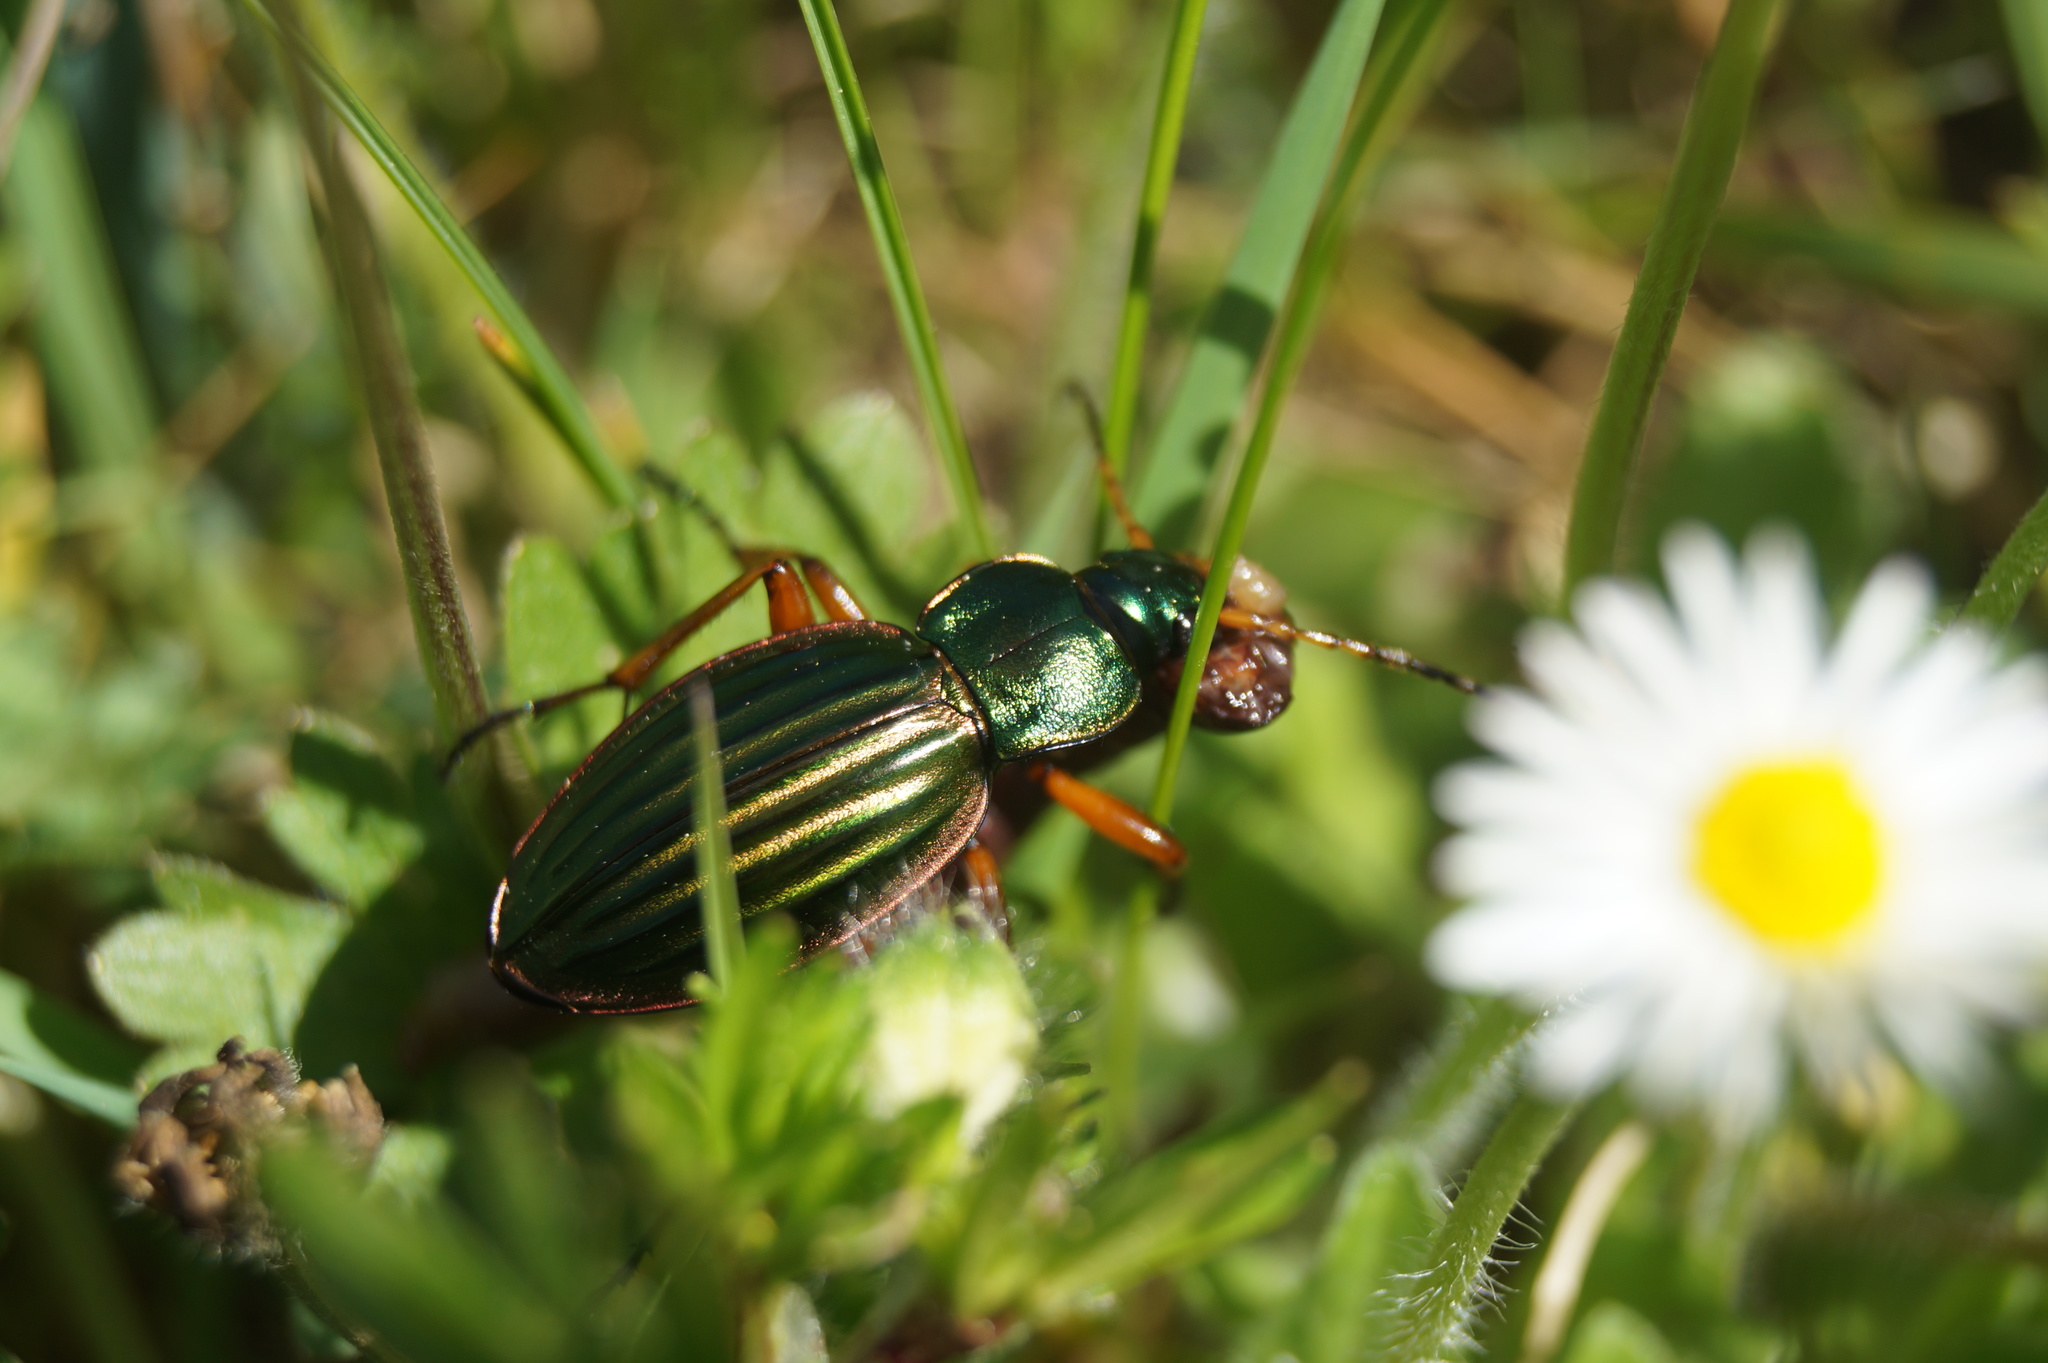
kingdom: Animalia
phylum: Arthropoda
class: Insecta
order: Coleoptera
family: Carabidae
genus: Carabus
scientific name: Carabus auratus
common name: Golden ground beetle
